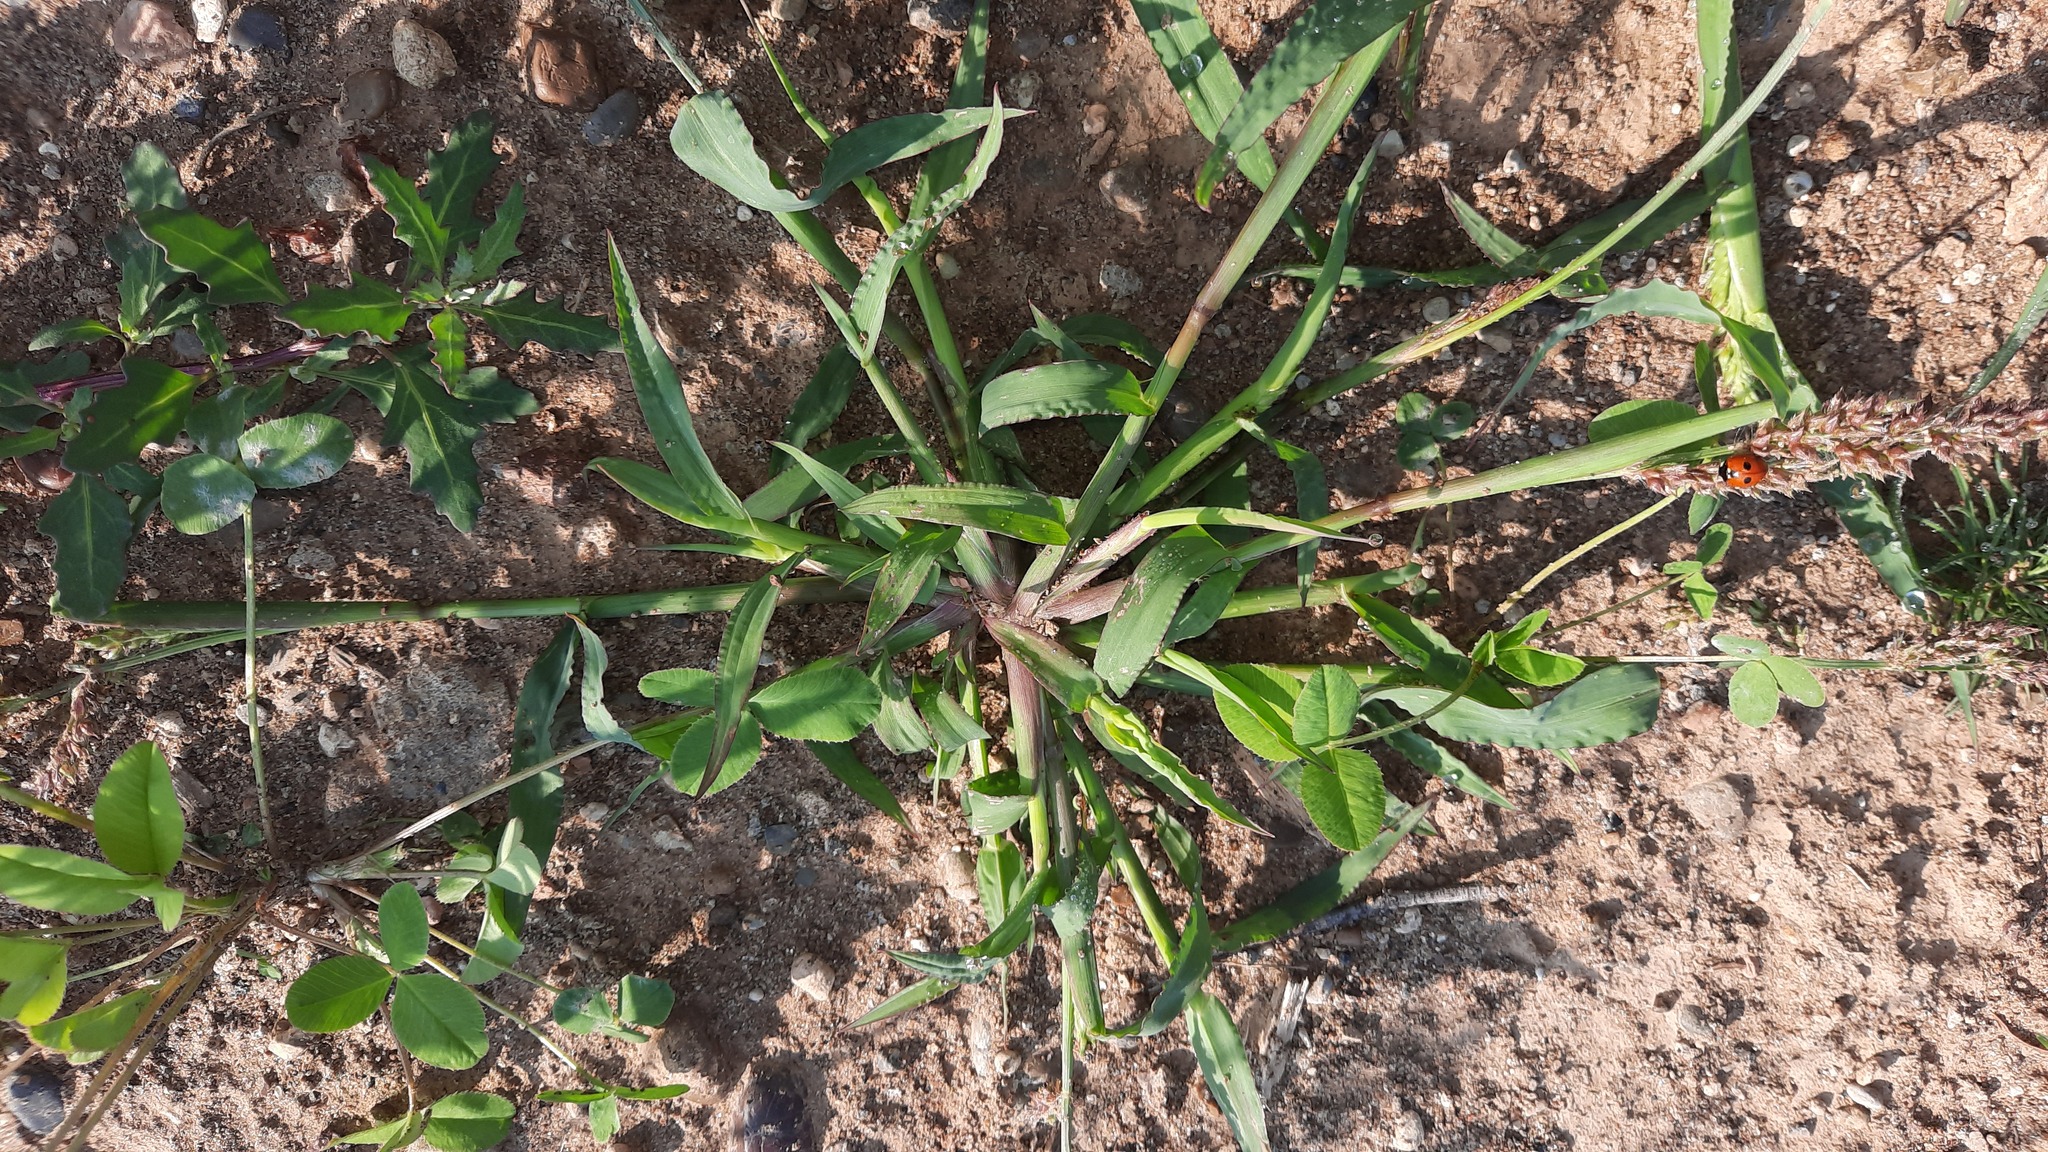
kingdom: Plantae
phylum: Tracheophyta
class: Liliopsida
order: Poales
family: Poaceae
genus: Echinochloa
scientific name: Echinochloa crus-galli
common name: Cockspur
